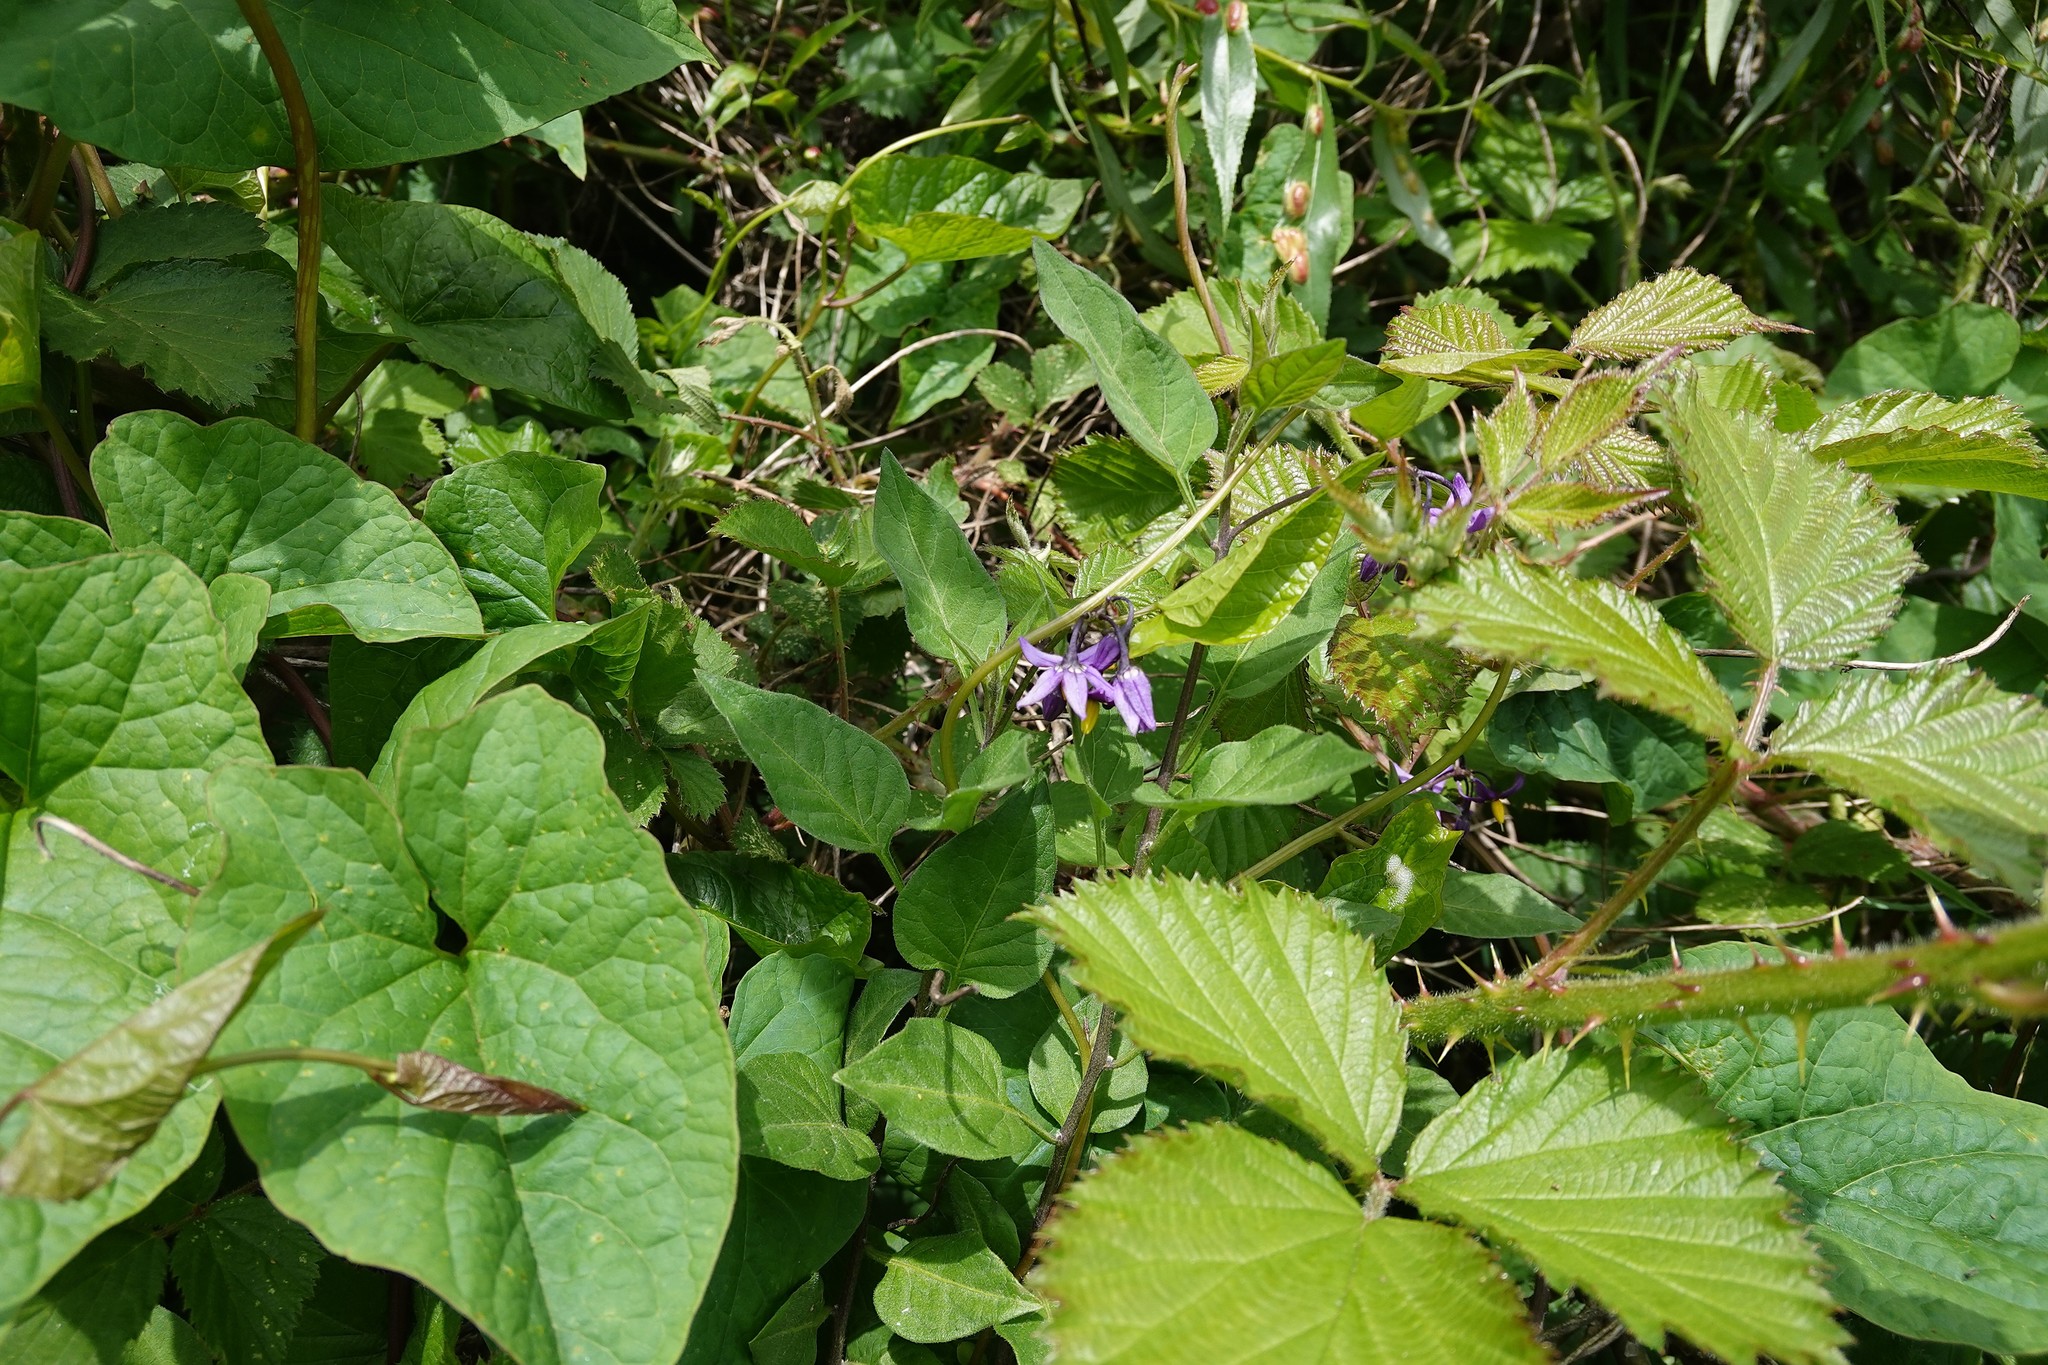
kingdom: Plantae
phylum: Tracheophyta
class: Magnoliopsida
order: Solanales
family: Solanaceae
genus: Solanum
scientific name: Solanum dulcamara
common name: Climbing nightshade
